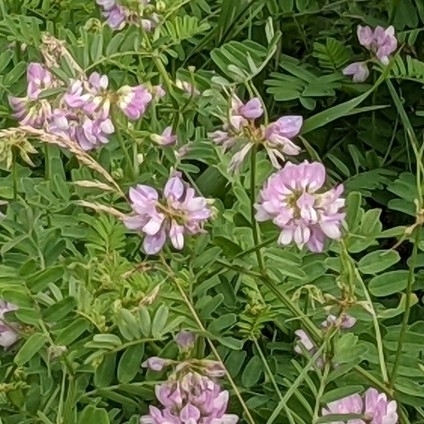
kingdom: Plantae
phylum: Tracheophyta
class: Magnoliopsida
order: Fabales
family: Fabaceae
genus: Coronilla
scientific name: Coronilla varia
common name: Crownvetch
